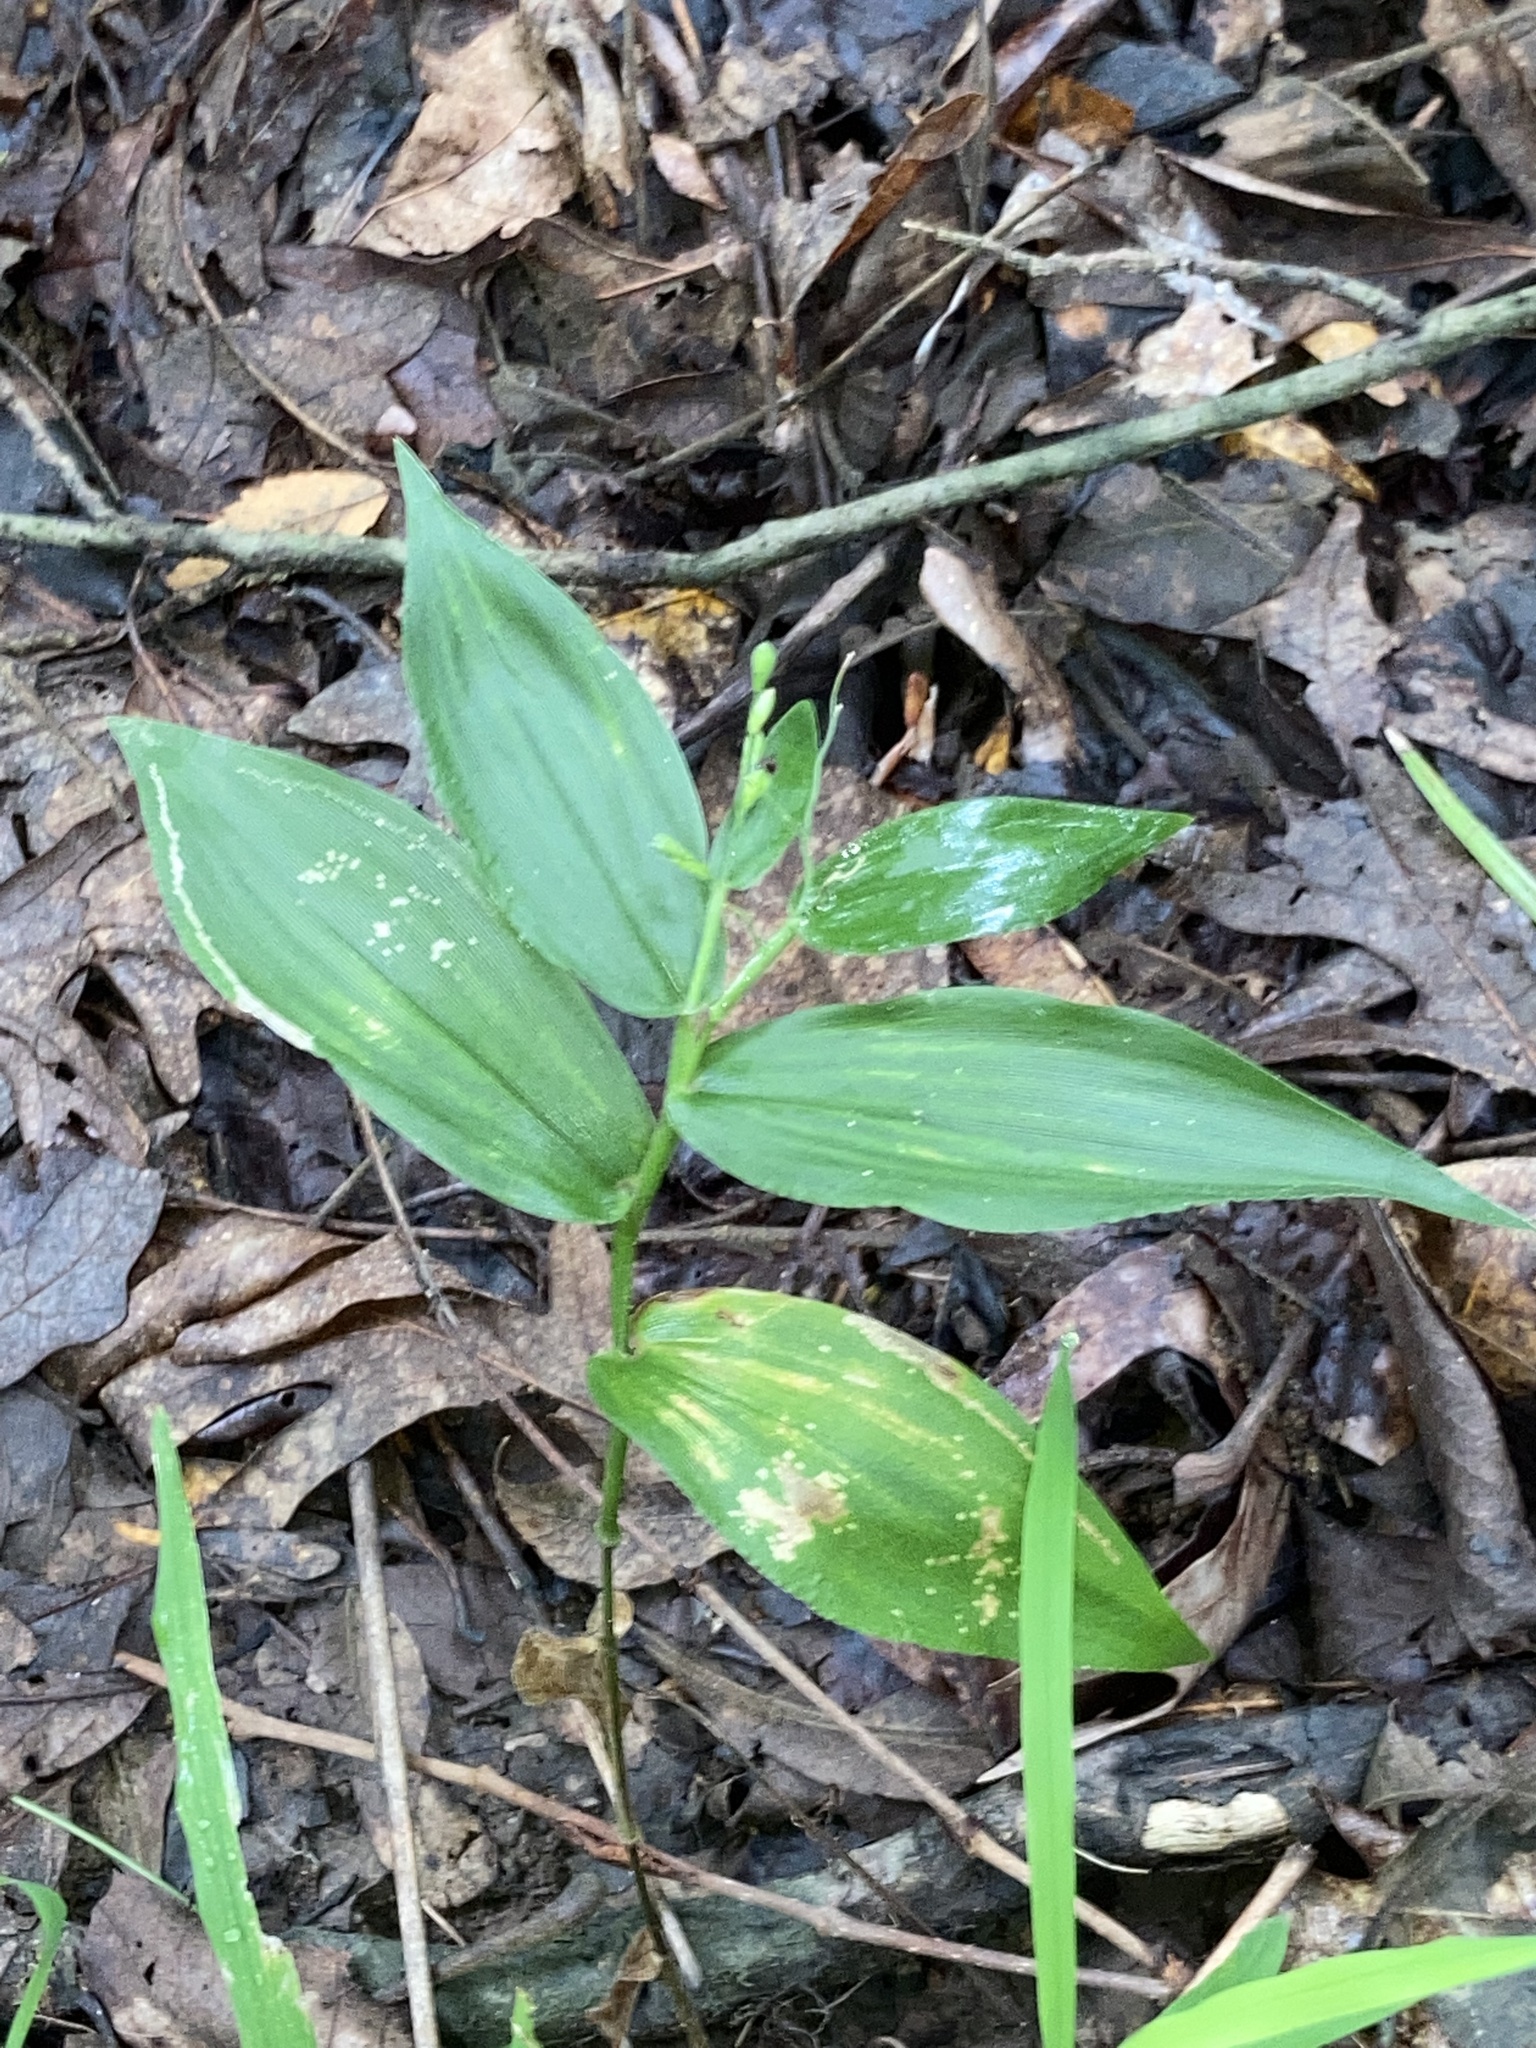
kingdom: Plantae
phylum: Tracheophyta
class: Liliopsida
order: Poales
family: Poaceae
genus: Dichanthelium
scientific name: Dichanthelium boscii
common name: Bosc's panic grass
